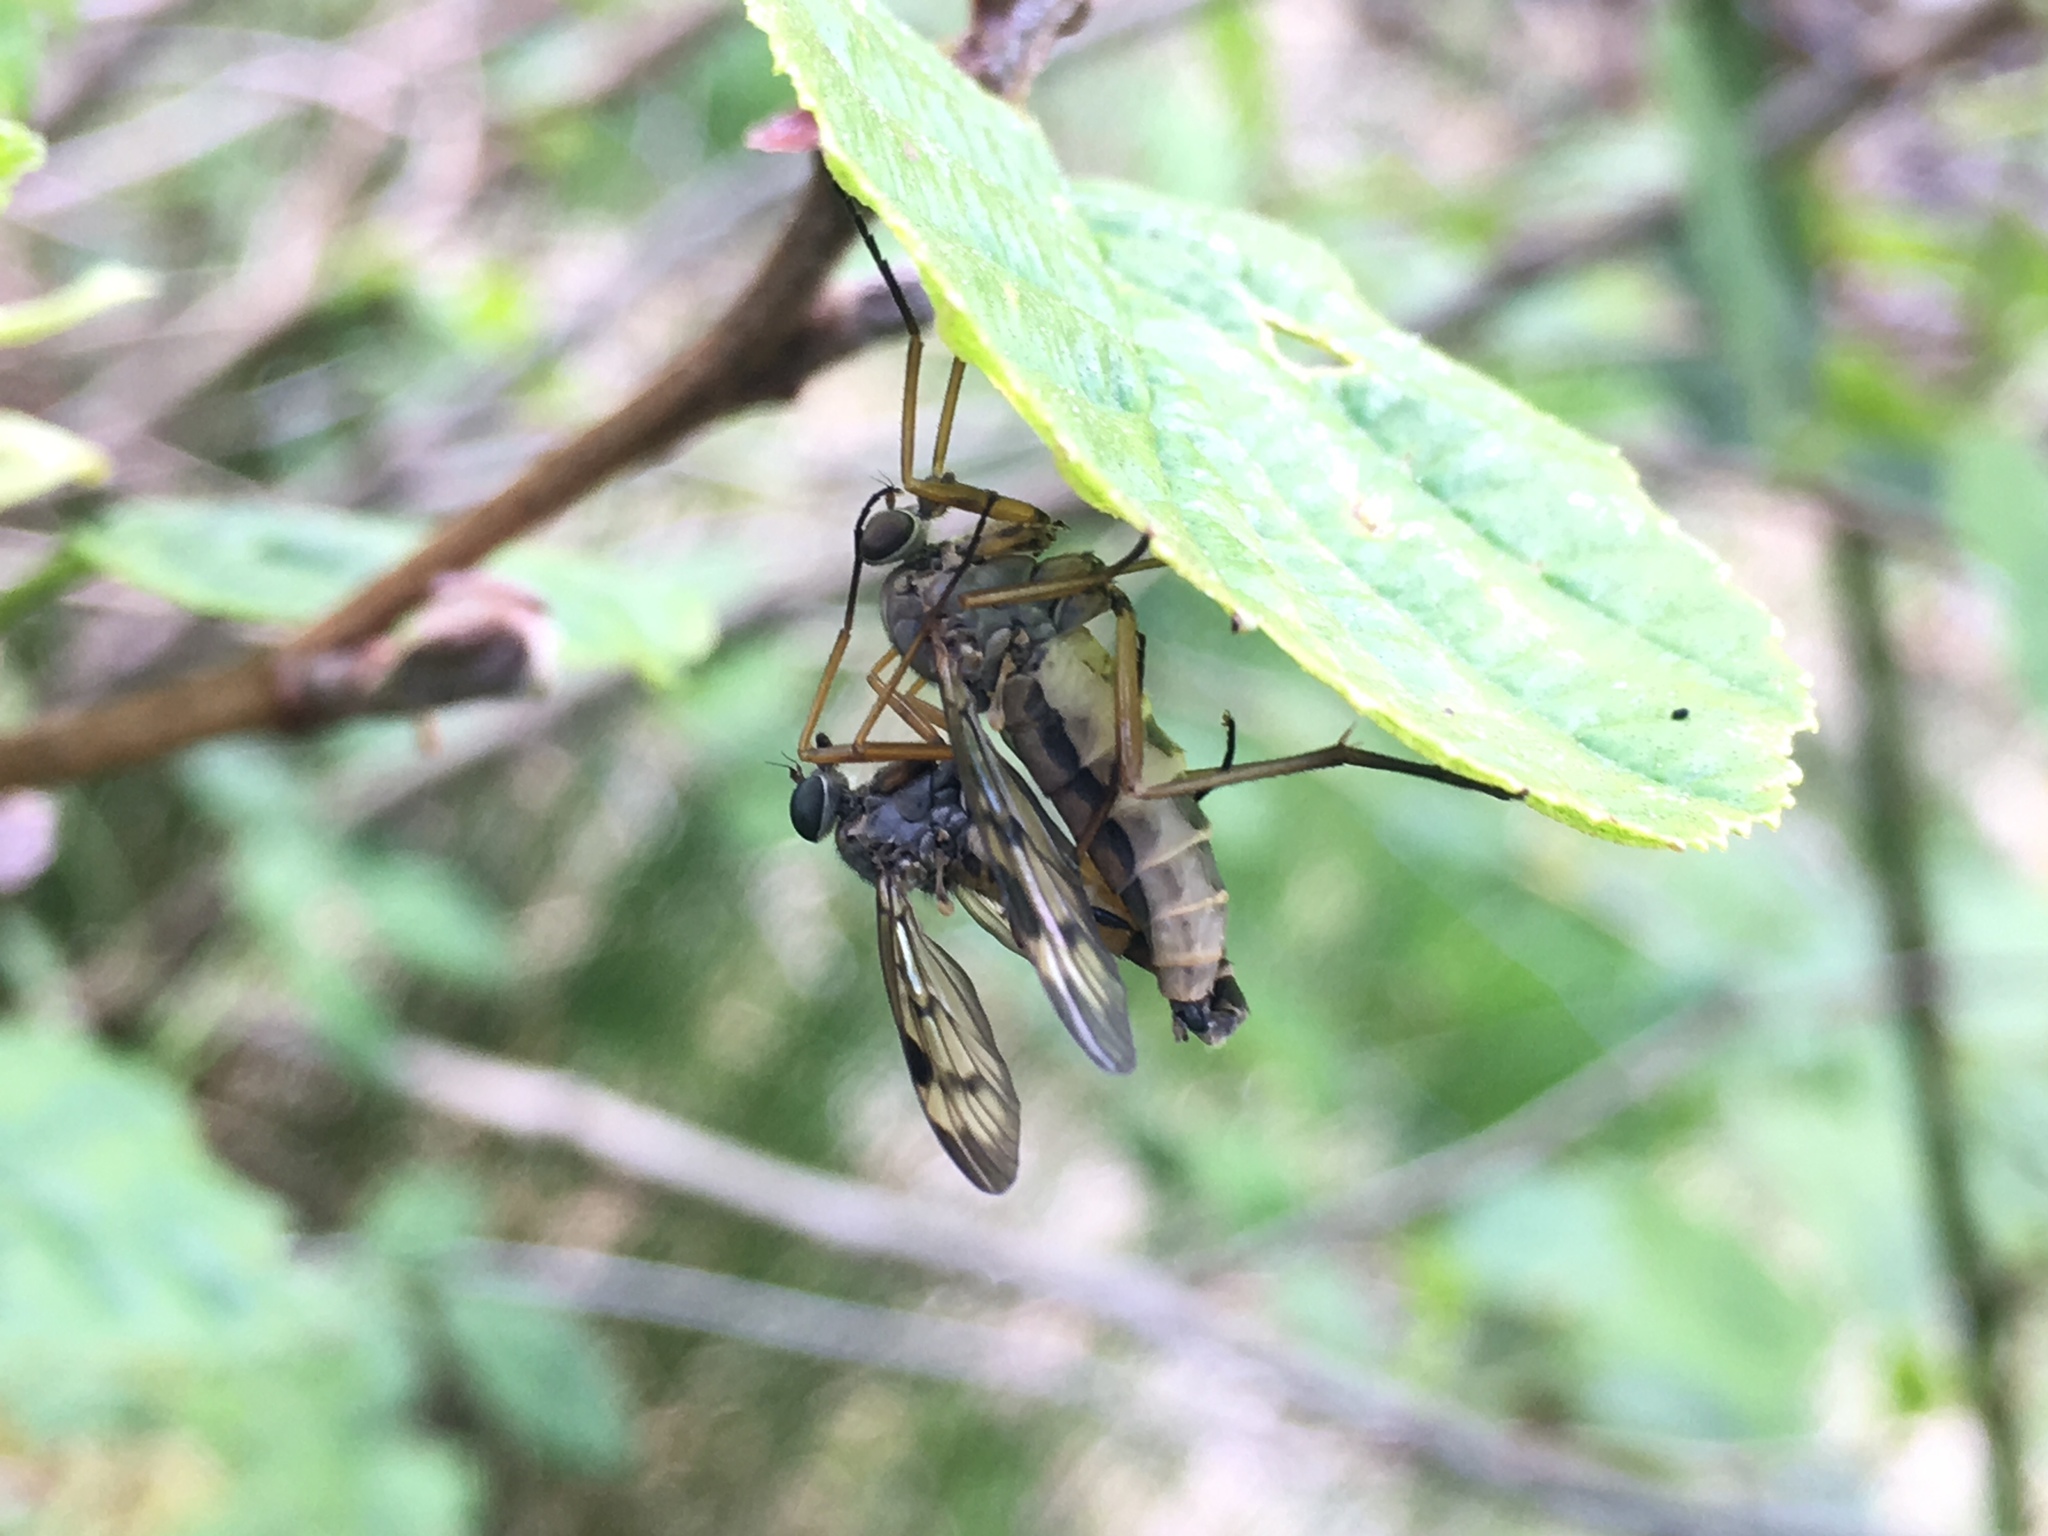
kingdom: Animalia
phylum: Arthropoda
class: Insecta
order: Diptera
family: Rhagionidae
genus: Rhagio
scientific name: Rhagio scolopacea
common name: Downlooker snipefly
